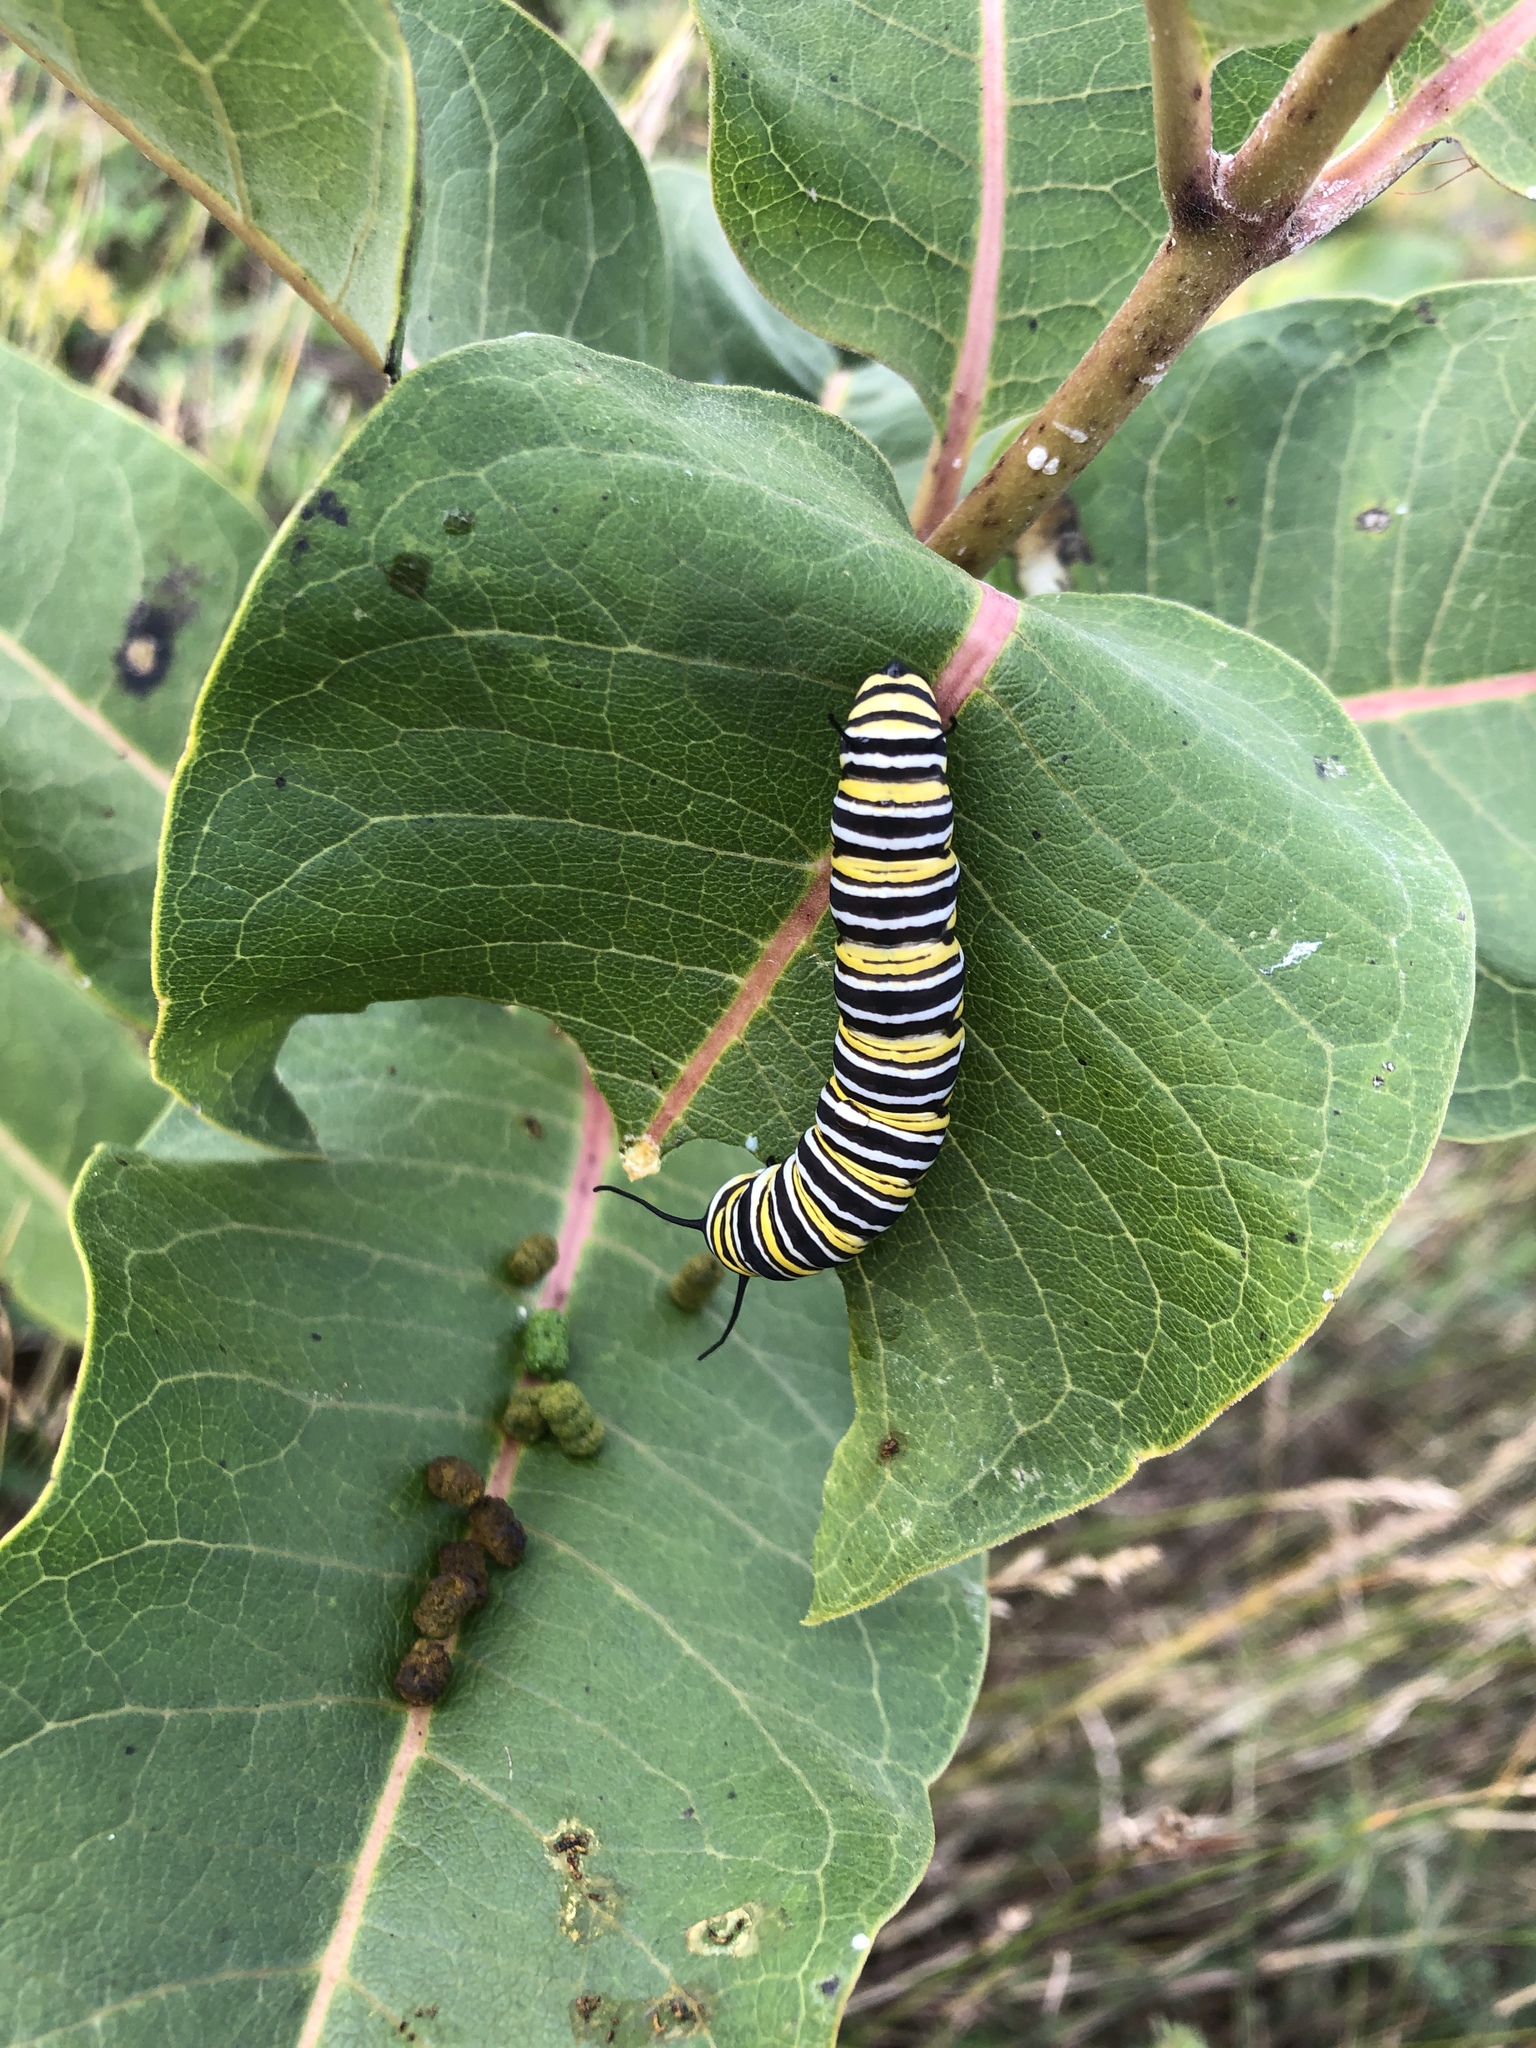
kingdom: Animalia
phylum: Arthropoda
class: Insecta
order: Lepidoptera
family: Nymphalidae
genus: Danaus
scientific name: Danaus plexippus
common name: Monarch
